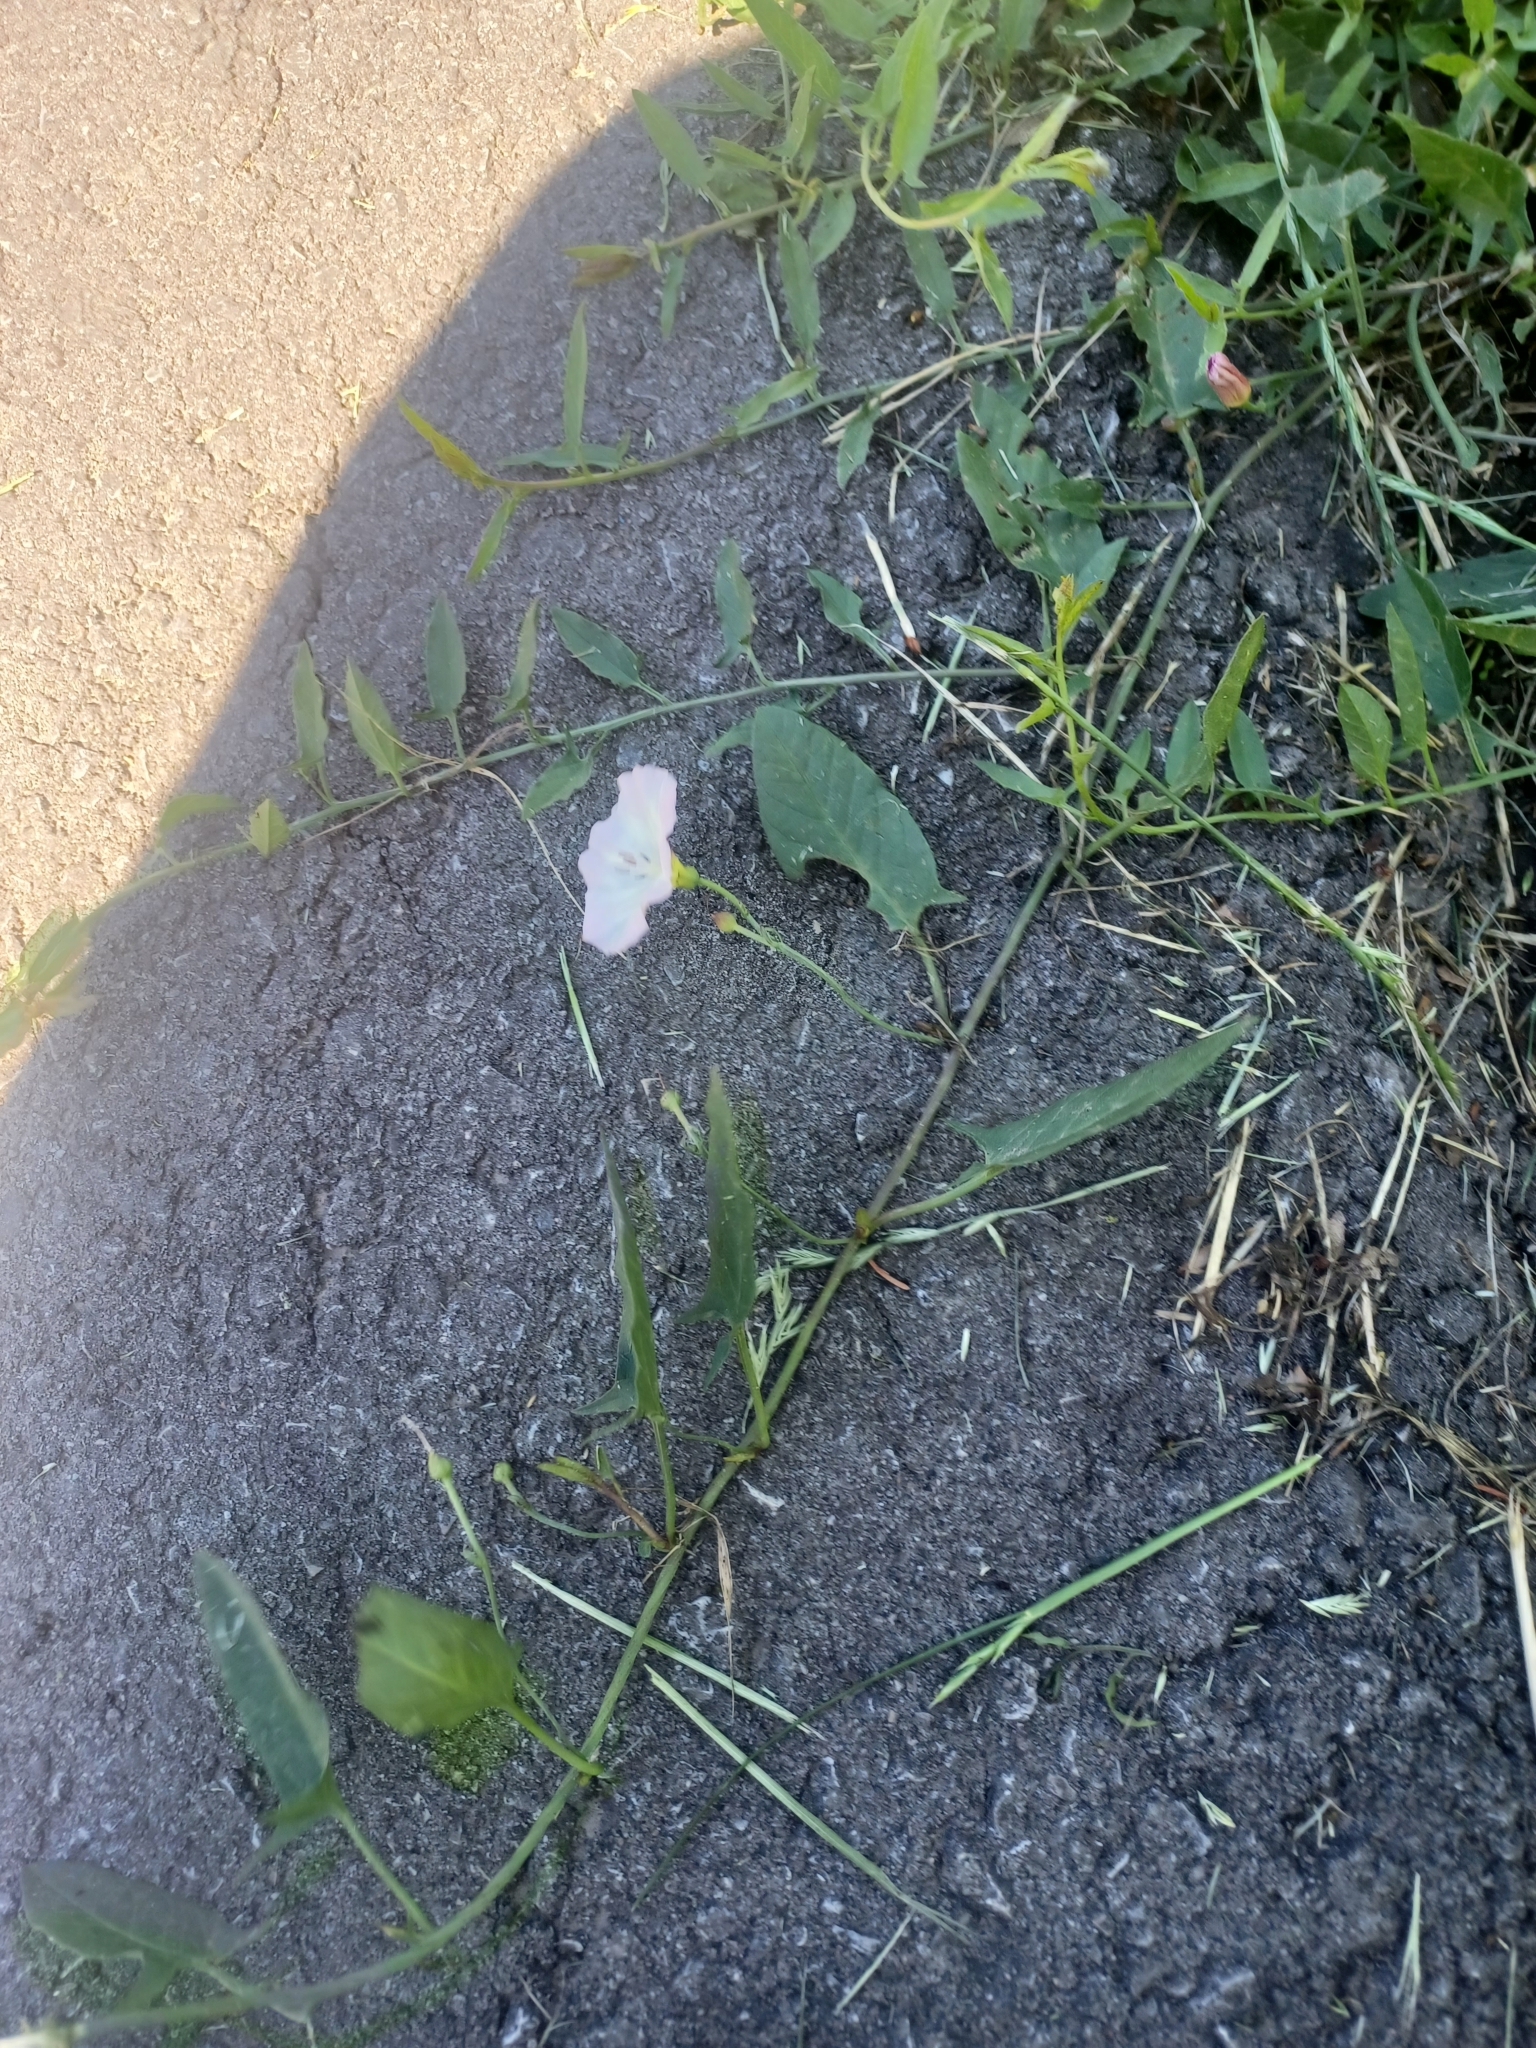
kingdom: Plantae
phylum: Tracheophyta
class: Magnoliopsida
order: Solanales
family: Convolvulaceae
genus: Convolvulus
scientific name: Convolvulus arvensis
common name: Field bindweed
